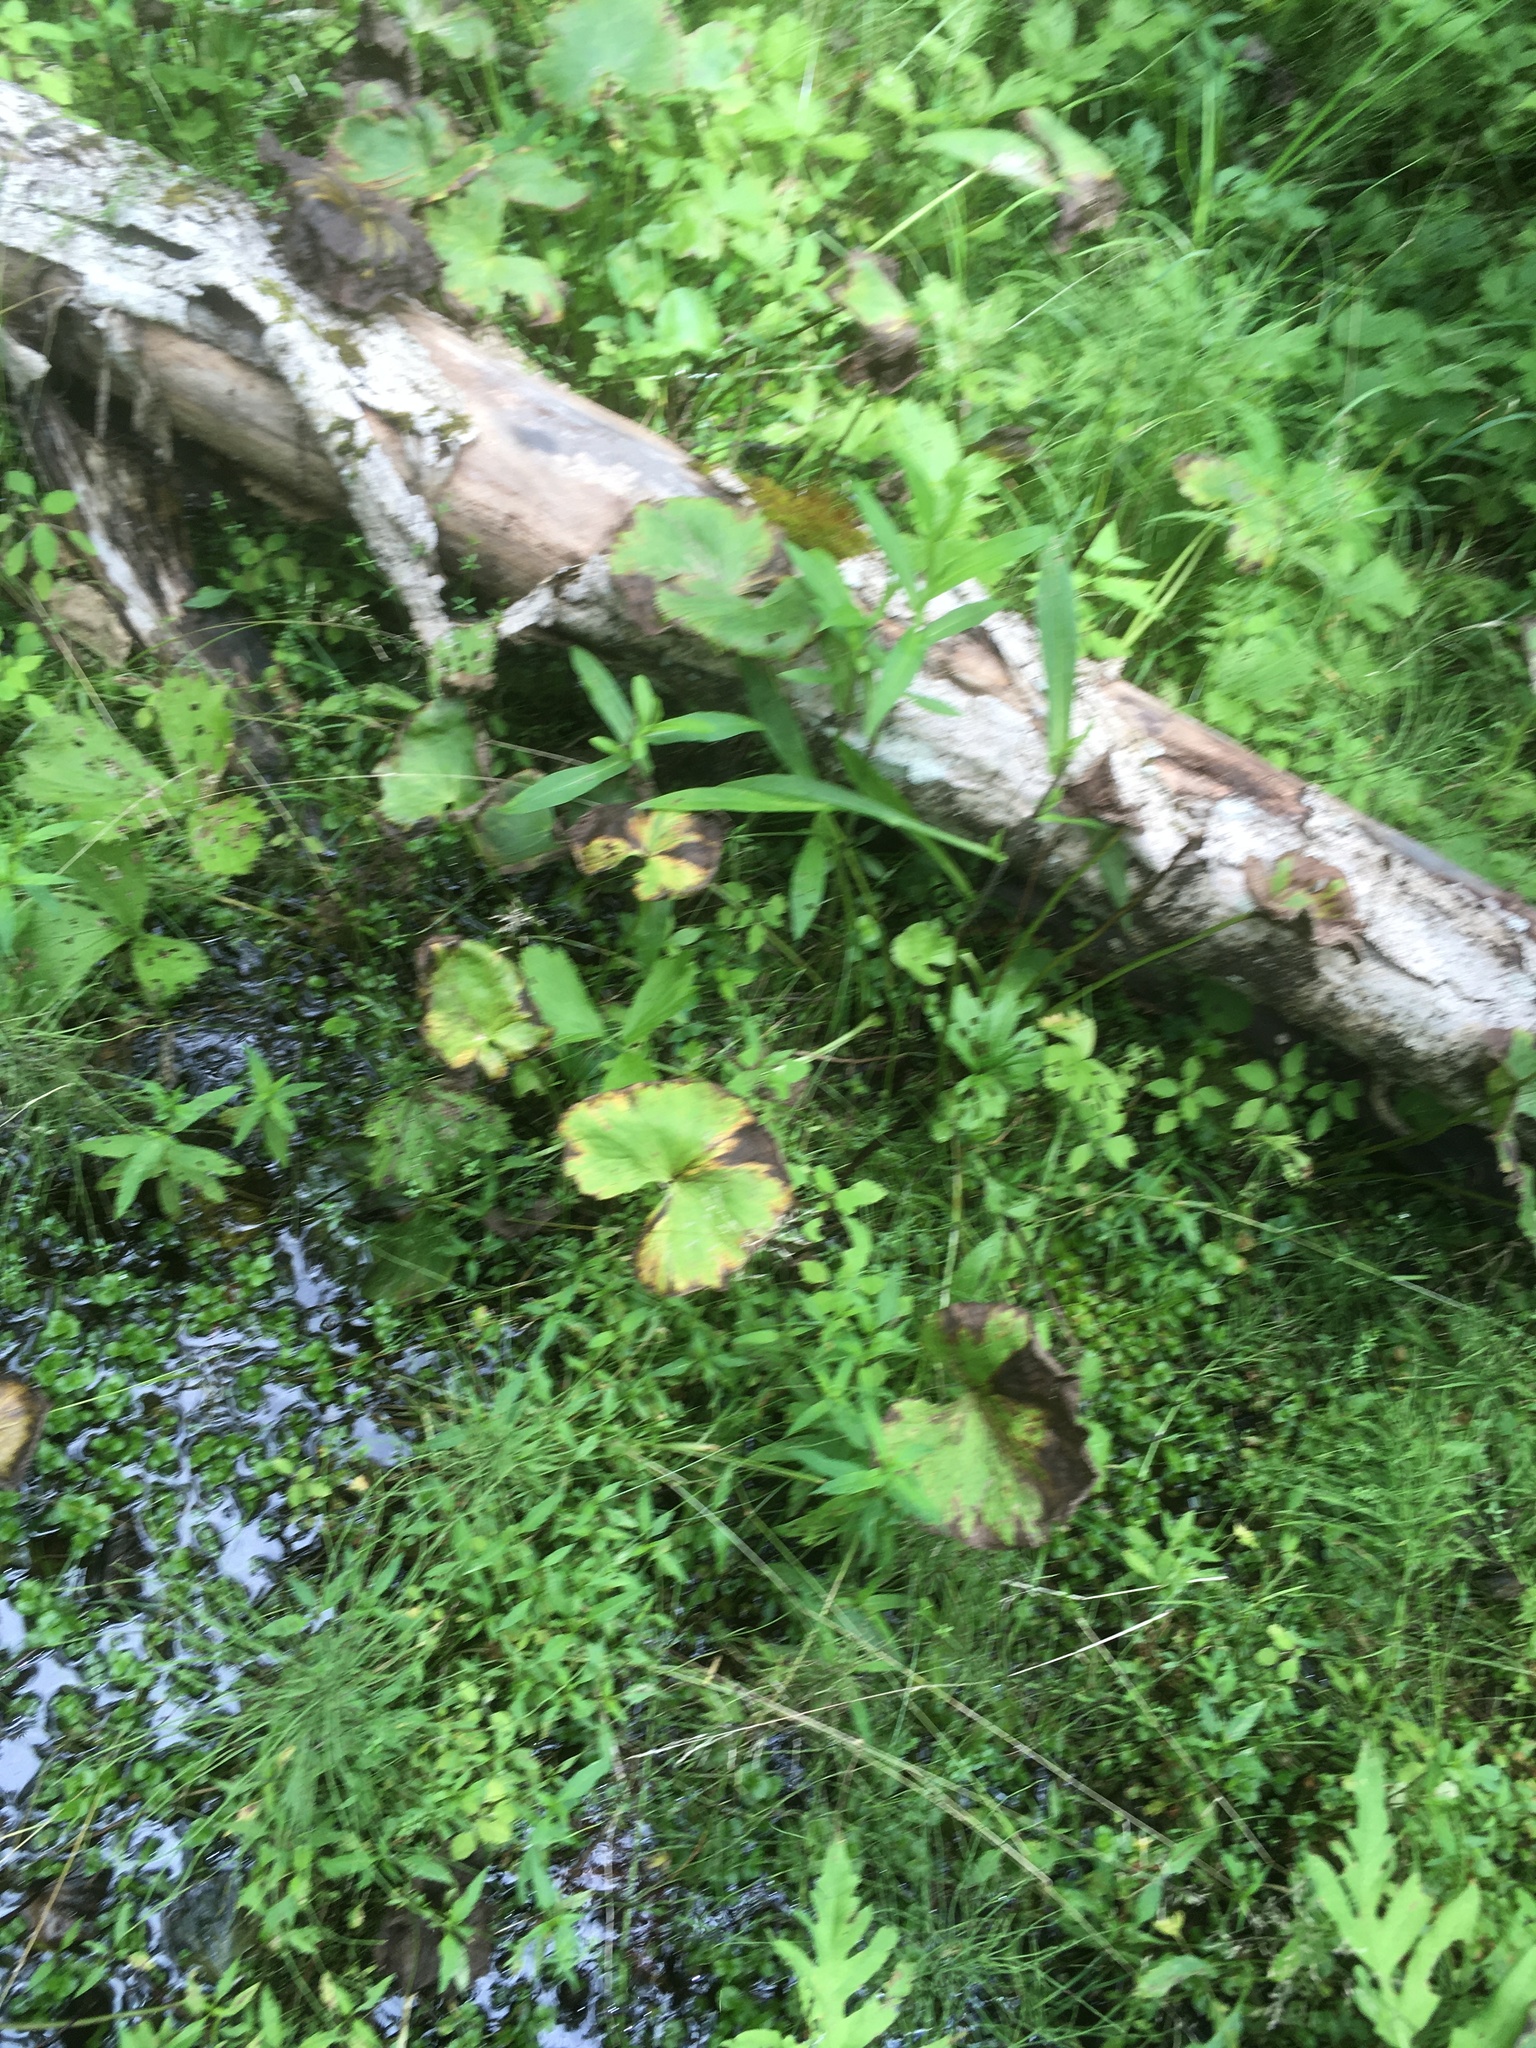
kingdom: Plantae
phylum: Tracheophyta
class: Magnoliopsida
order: Ranunculales
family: Ranunculaceae
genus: Caltha
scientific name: Caltha palustris
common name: Marsh marigold
